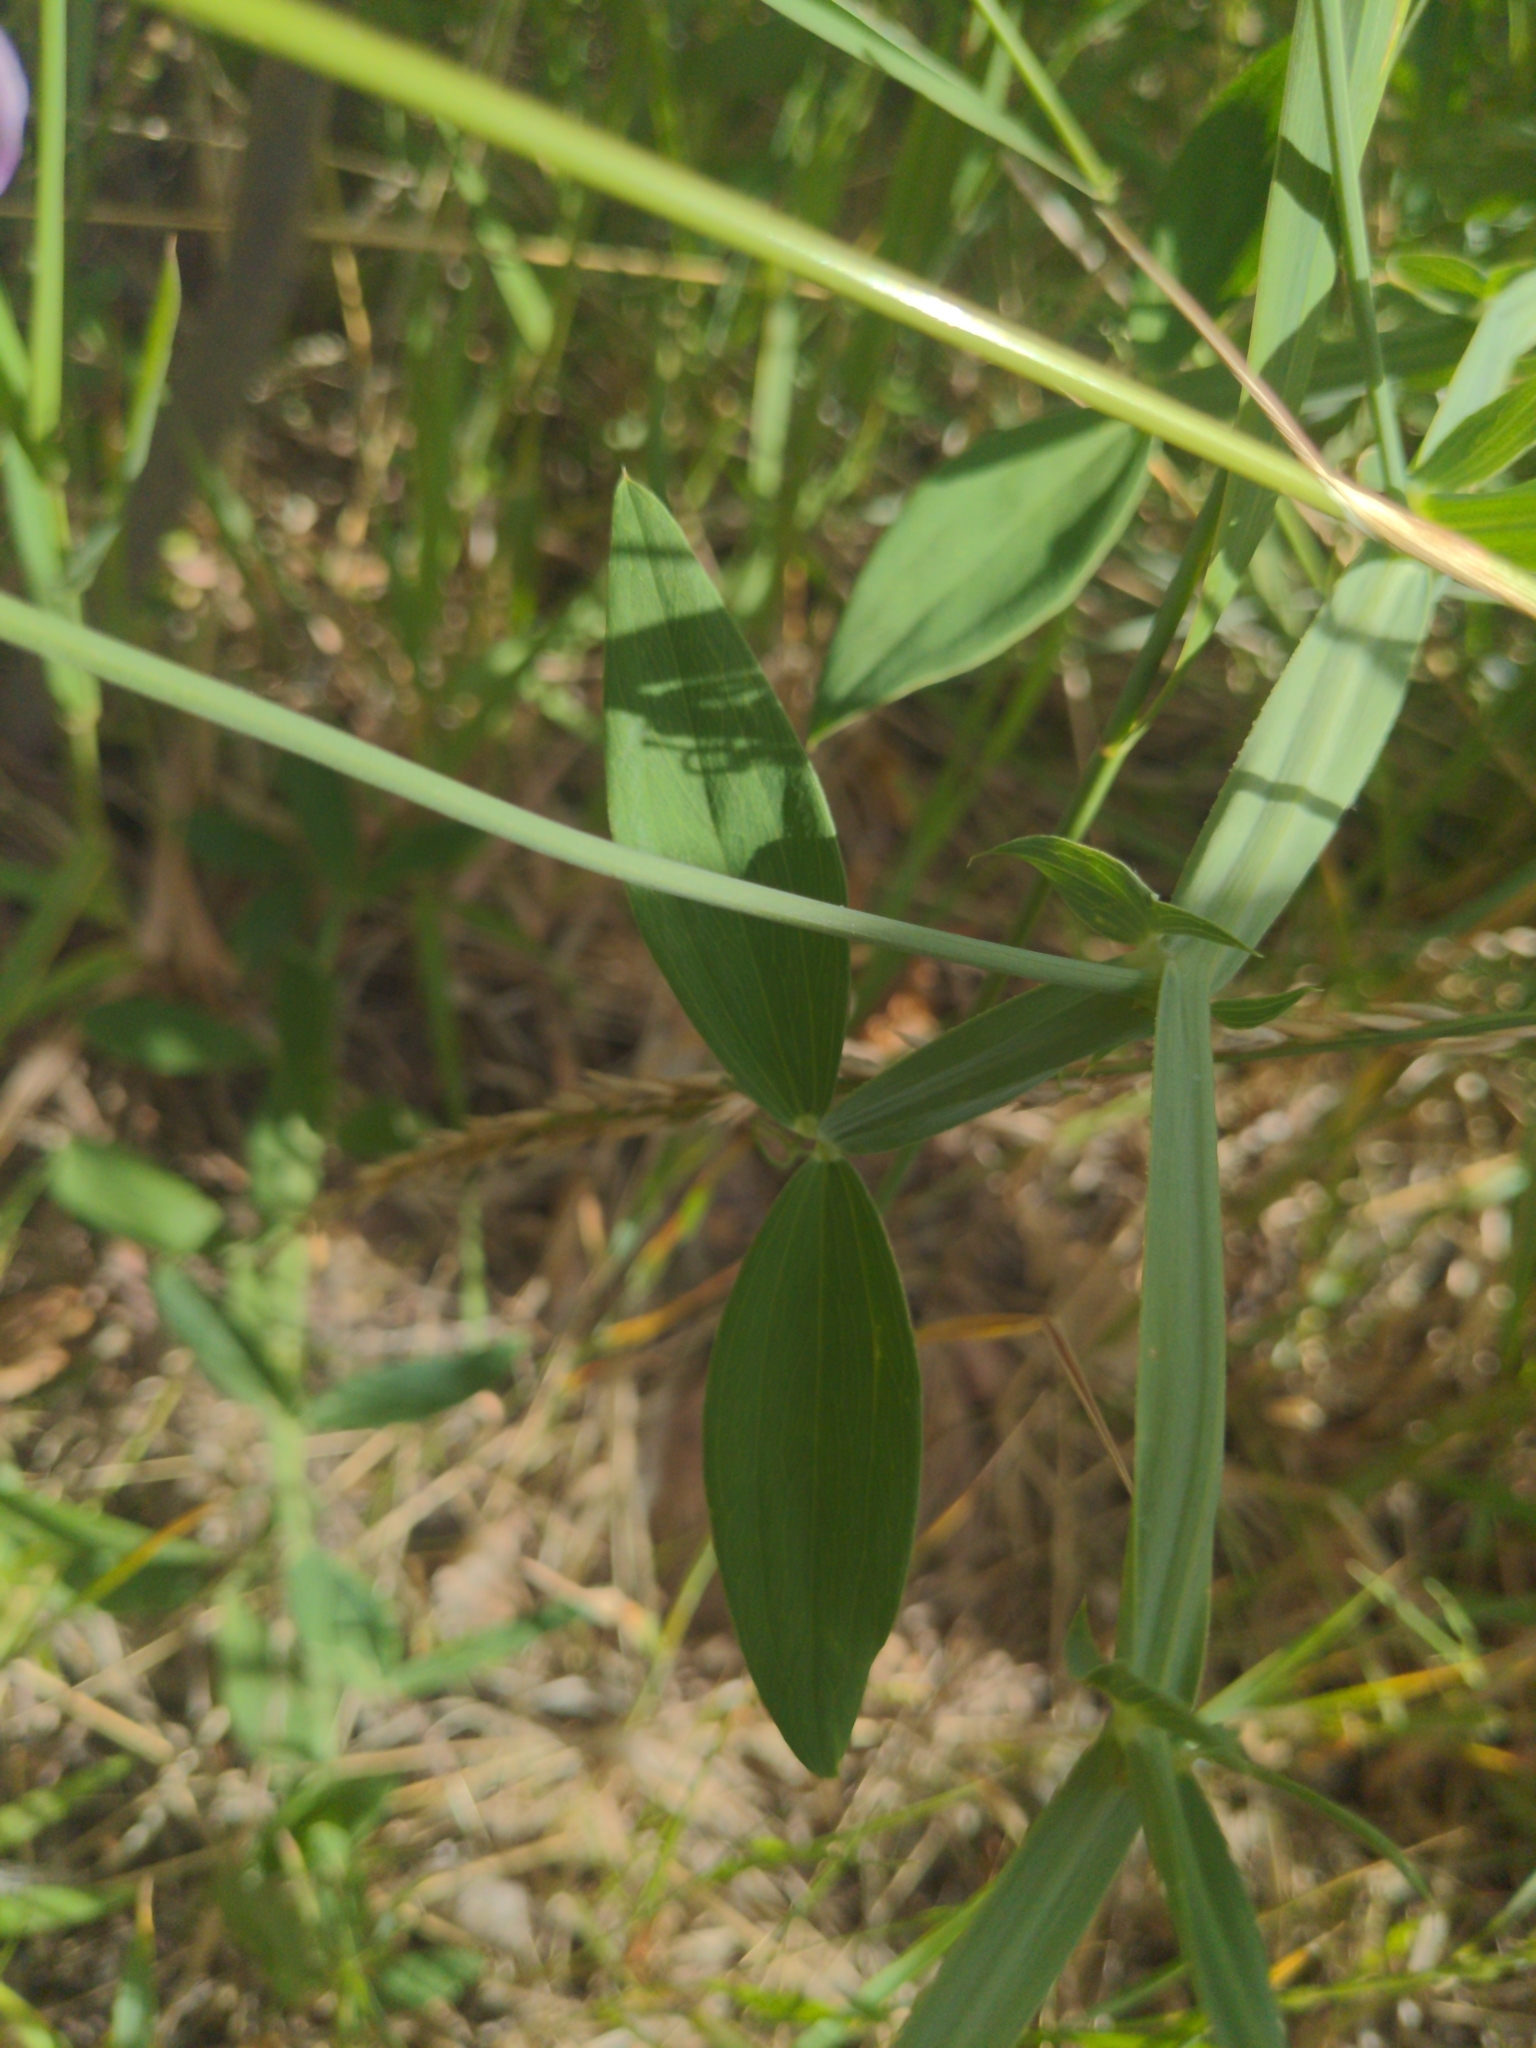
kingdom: Plantae
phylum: Tracheophyta
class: Magnoliopsida
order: Fabales
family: Fabaceae
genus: Lathyrus
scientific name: Lathyrus latifolius
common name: Perennial pea
